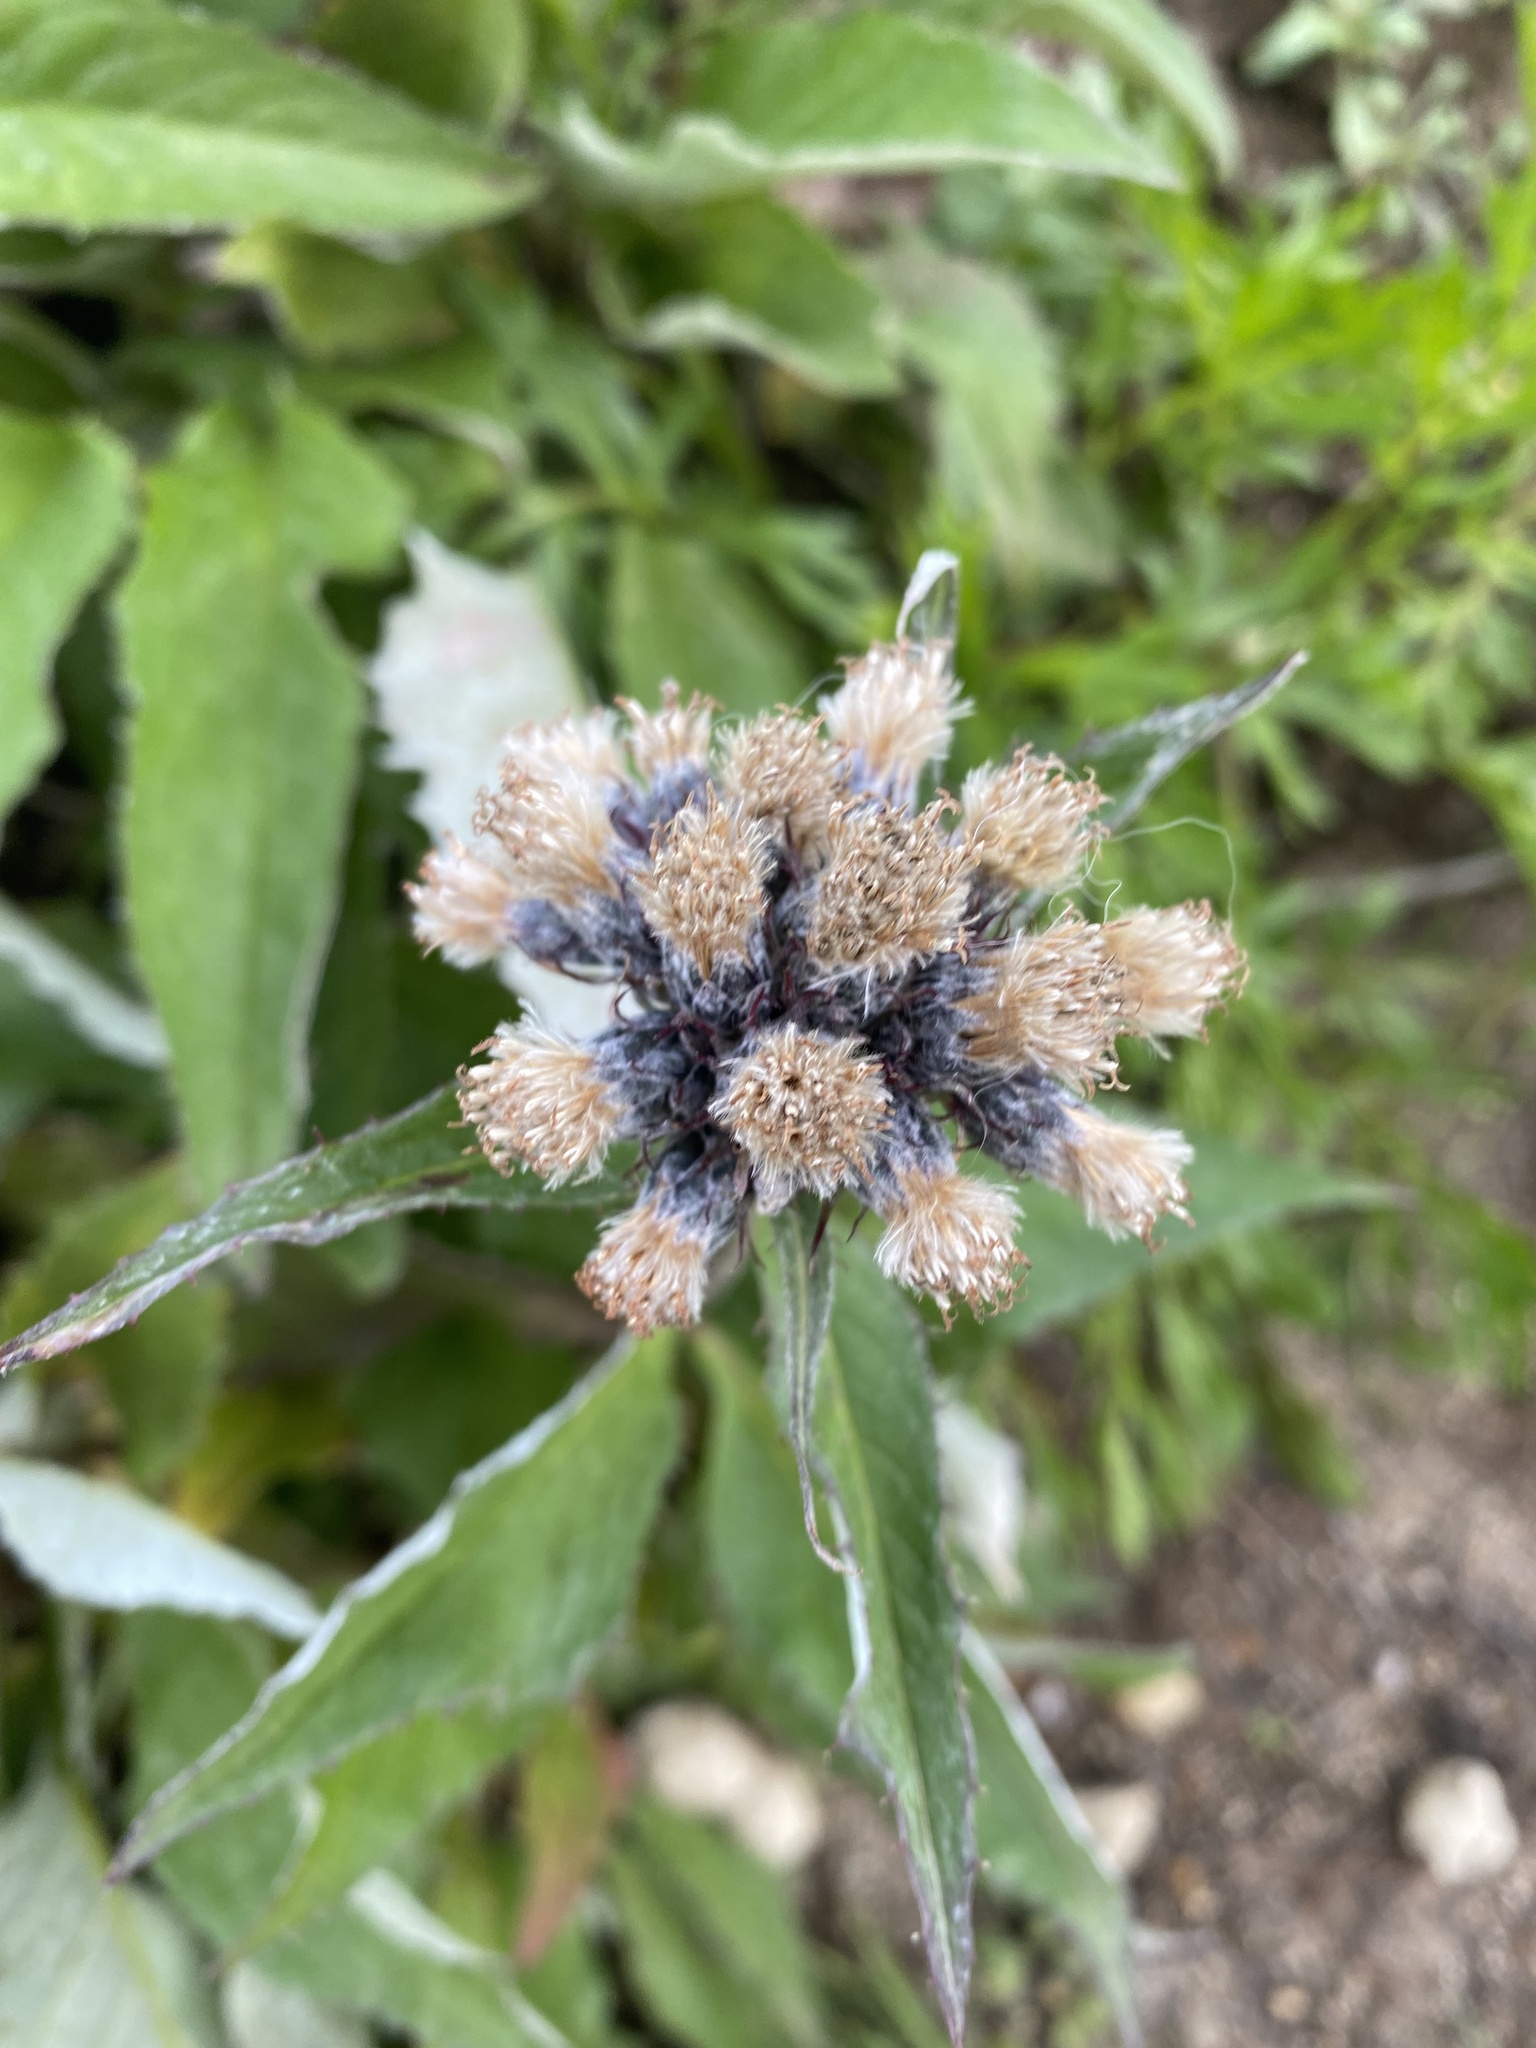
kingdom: Plantae
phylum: Tracheophyta
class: Magnoliopsida
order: Asterales
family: Asteraceae
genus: Saussurea
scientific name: Saussurea pseudotilesii
